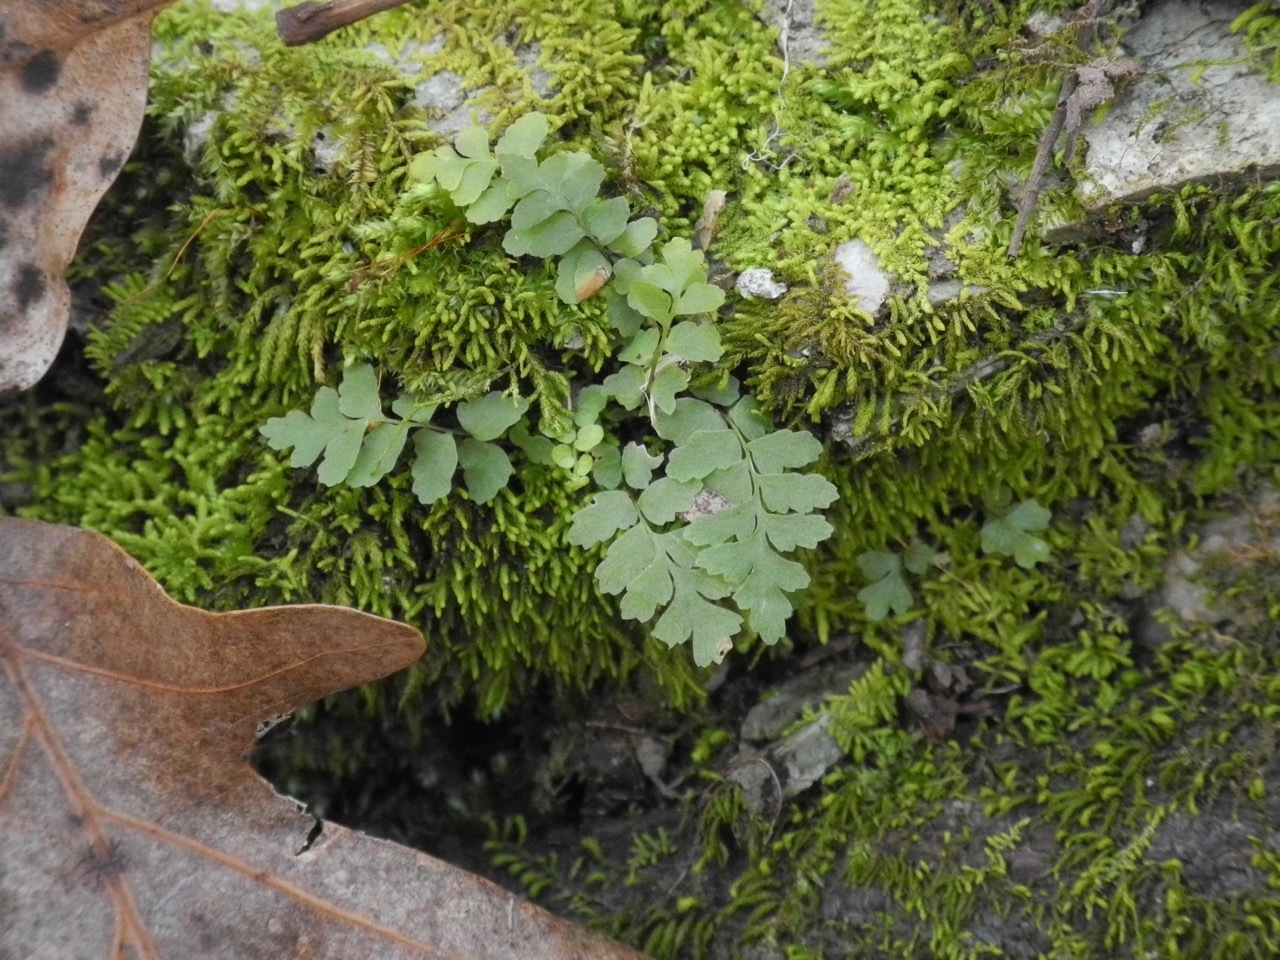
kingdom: Plantae
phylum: Tracheophyta
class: Polypodiopsida
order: Polypodiales
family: Aspleniaceae
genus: Asplenium
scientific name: Asplenium platyneuron
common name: Ebony spleenwort
